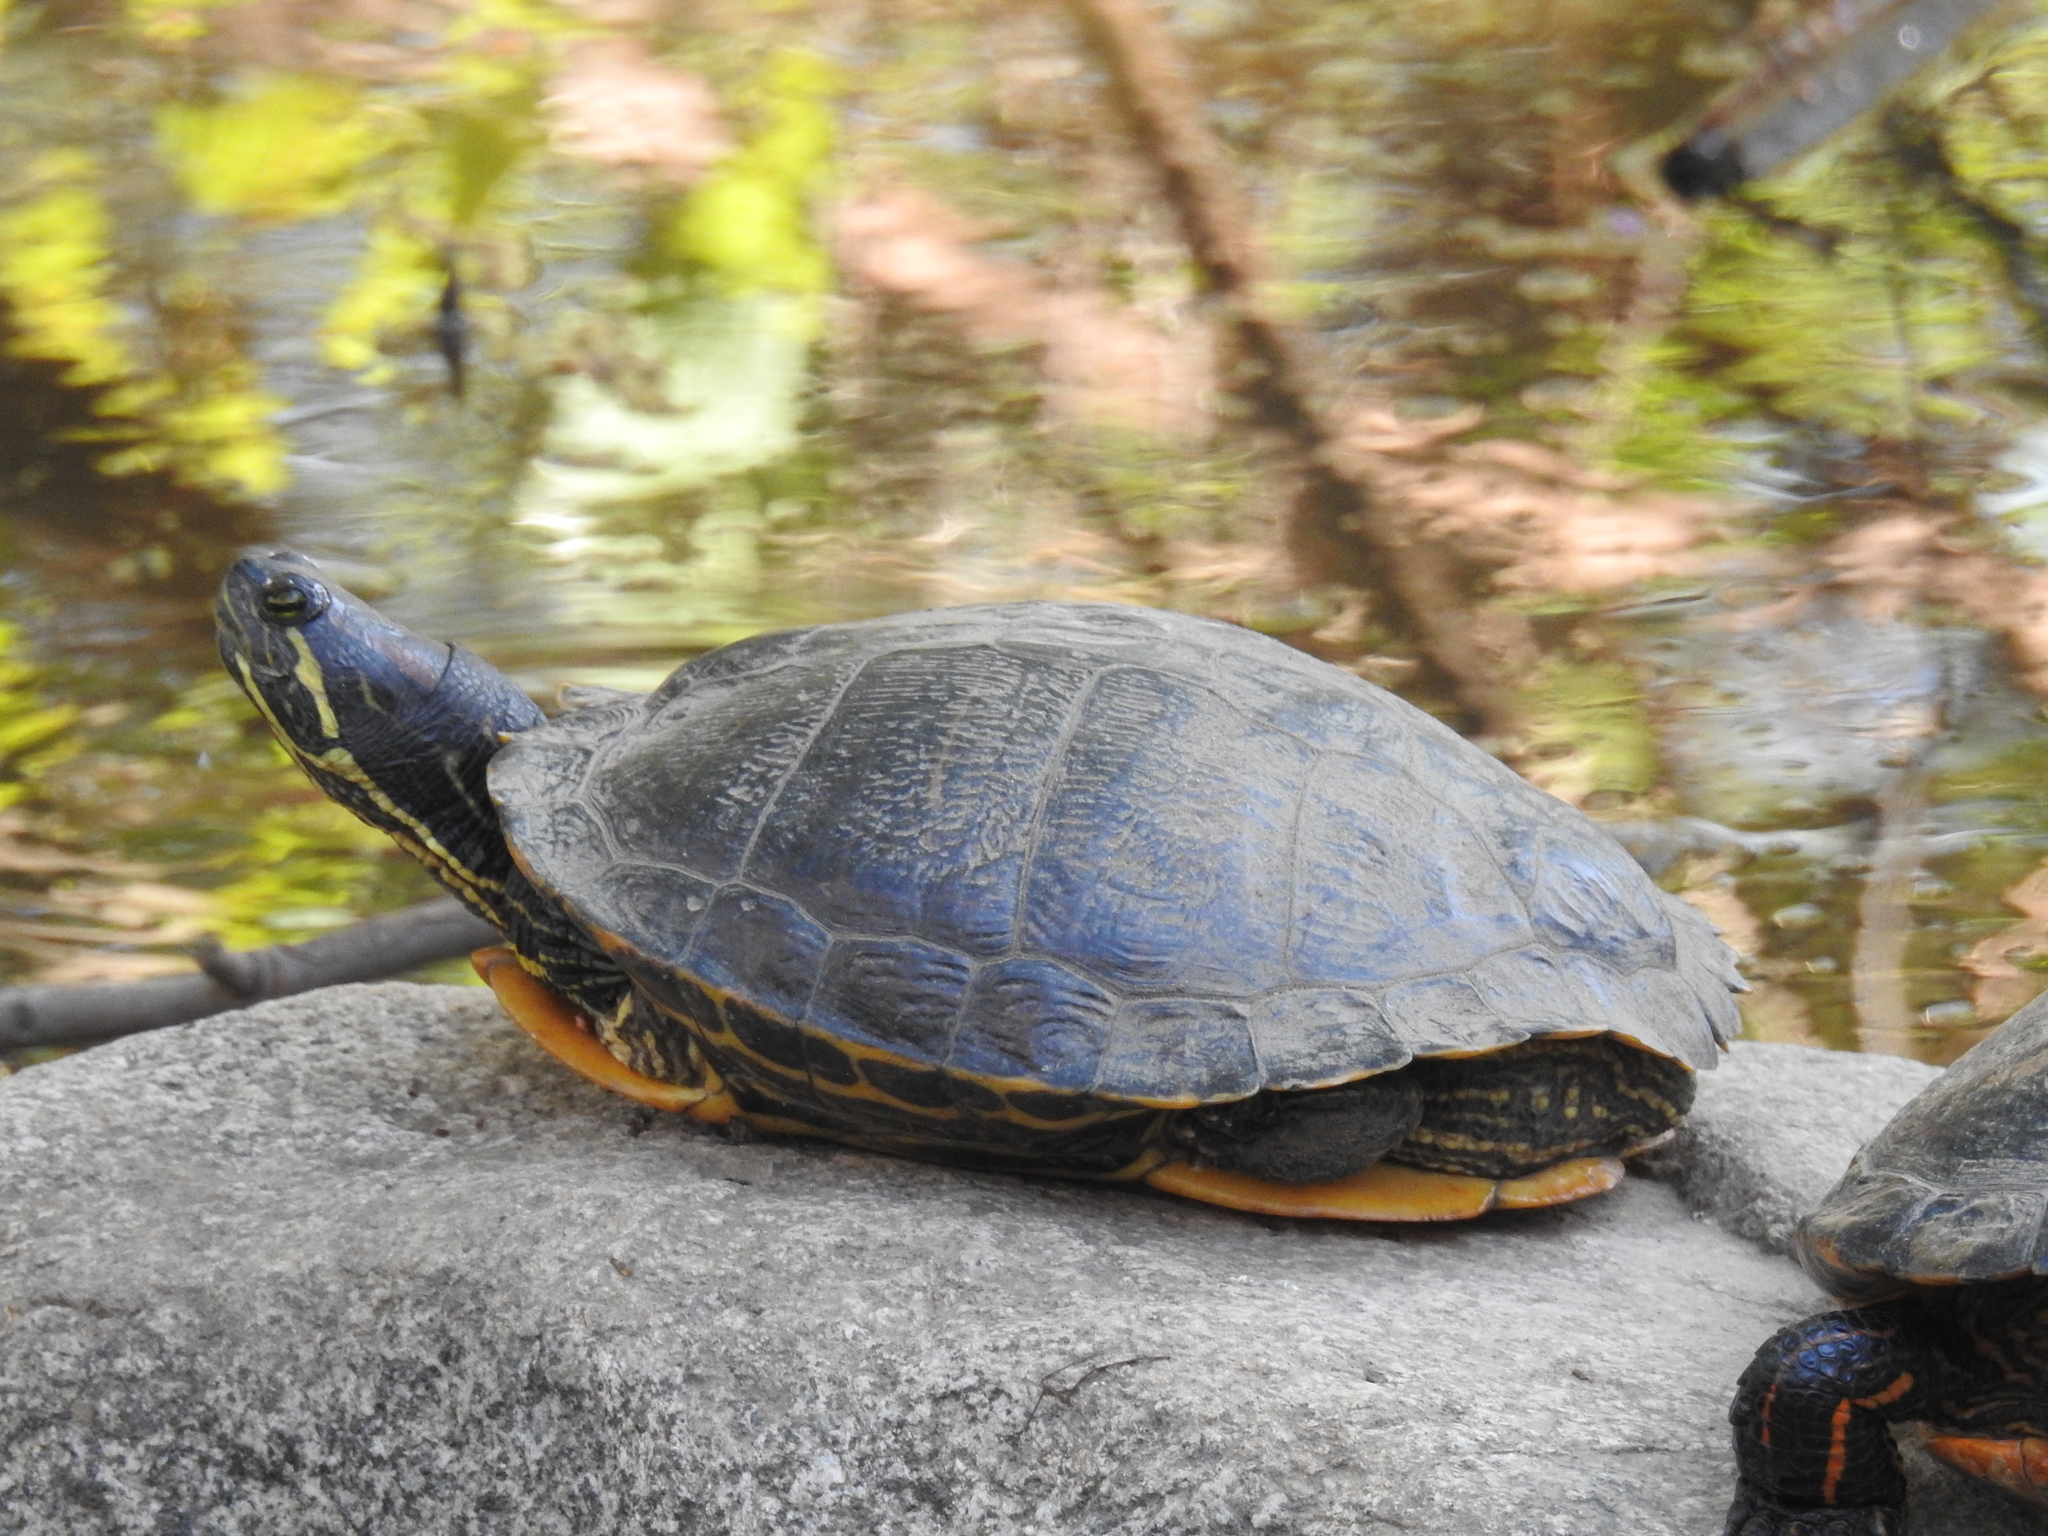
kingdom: Animalia
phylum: Chordata
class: Testudines
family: Emydidae
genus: Trachemys
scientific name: Trachemys scripta
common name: Slider
